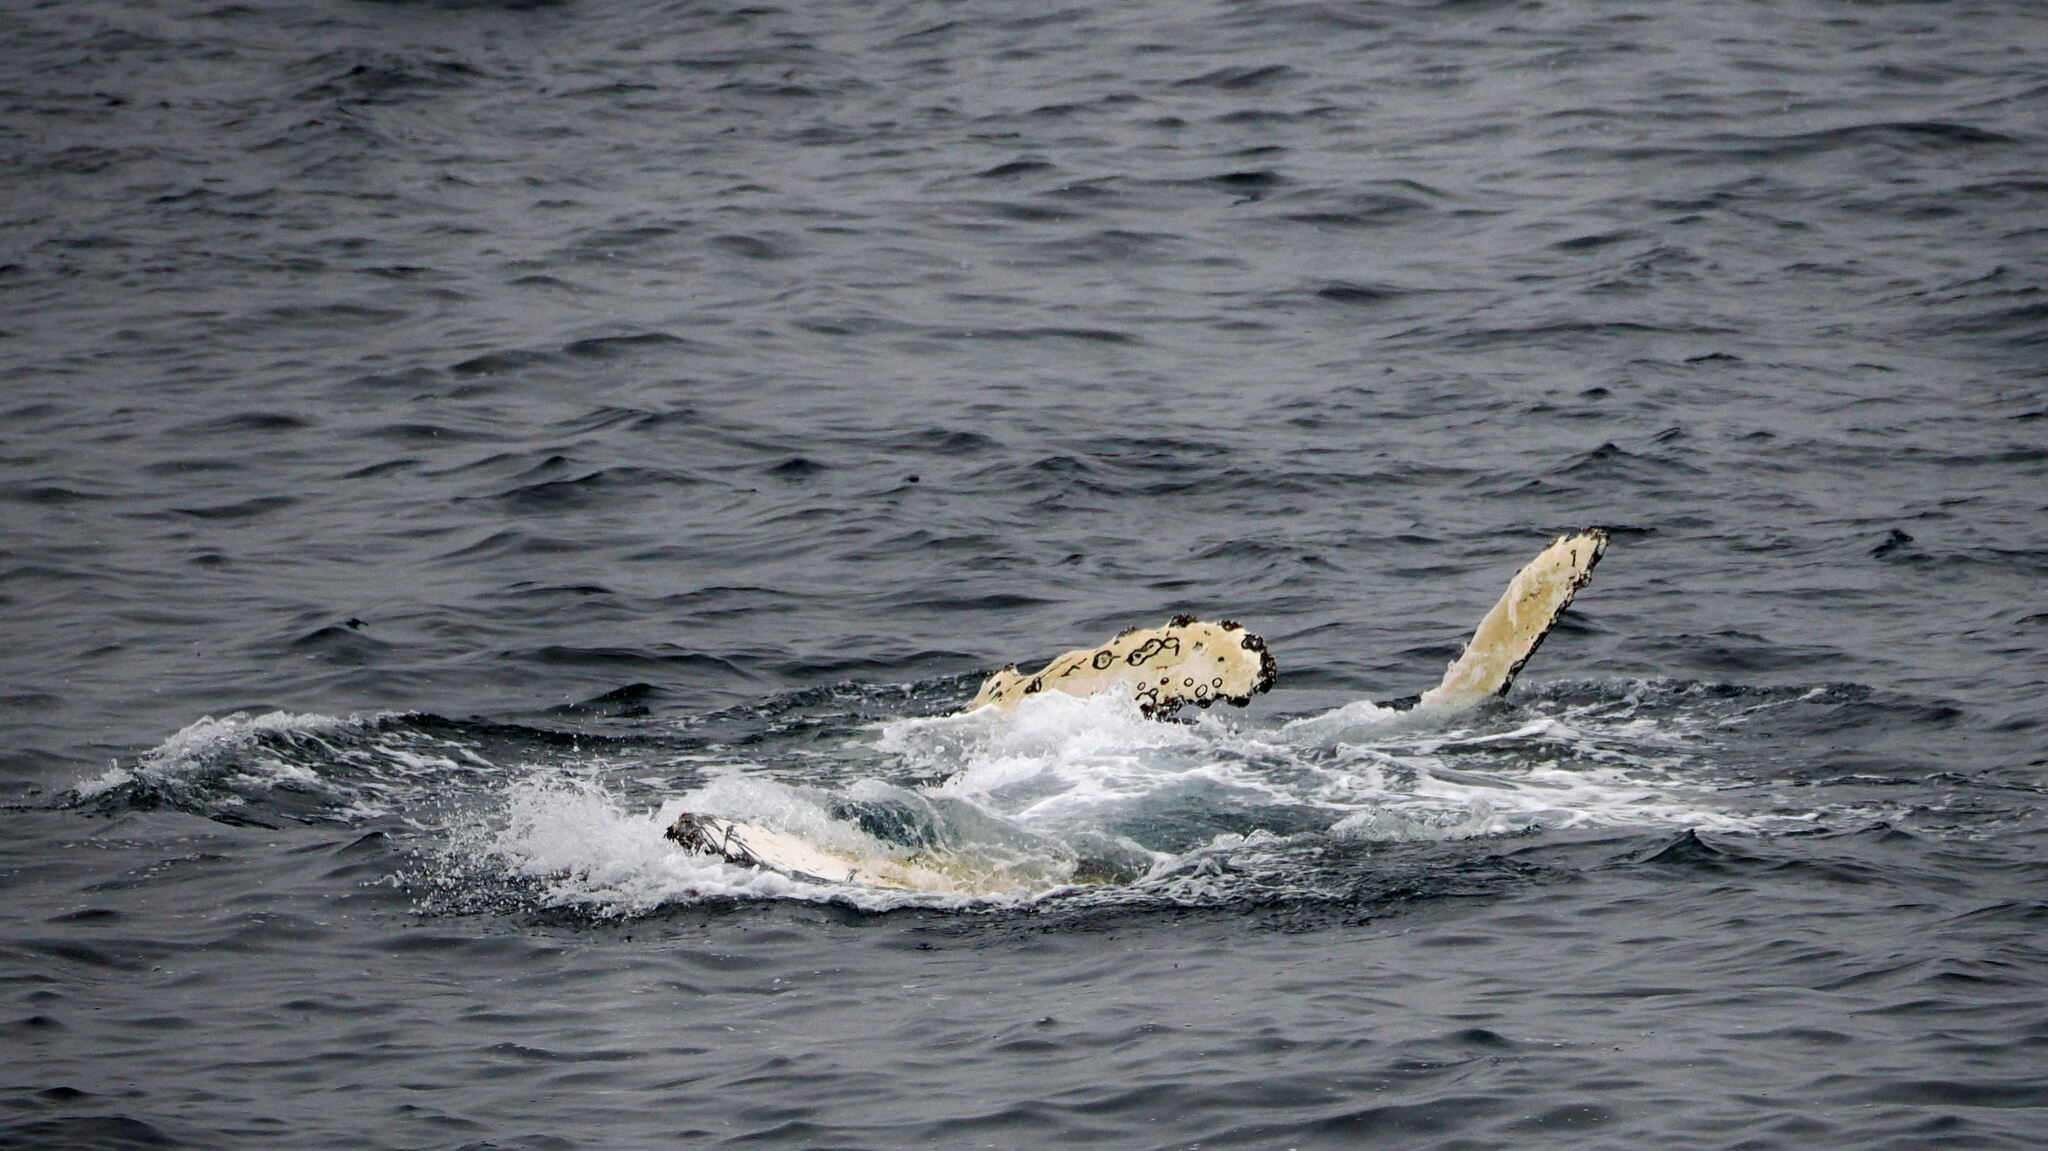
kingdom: Animalia
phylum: Chordata
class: Mammalia
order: Cetacea
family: Balaenopteridae
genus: Megaptera
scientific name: Megaptera novaeangliae
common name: Humpback whale
